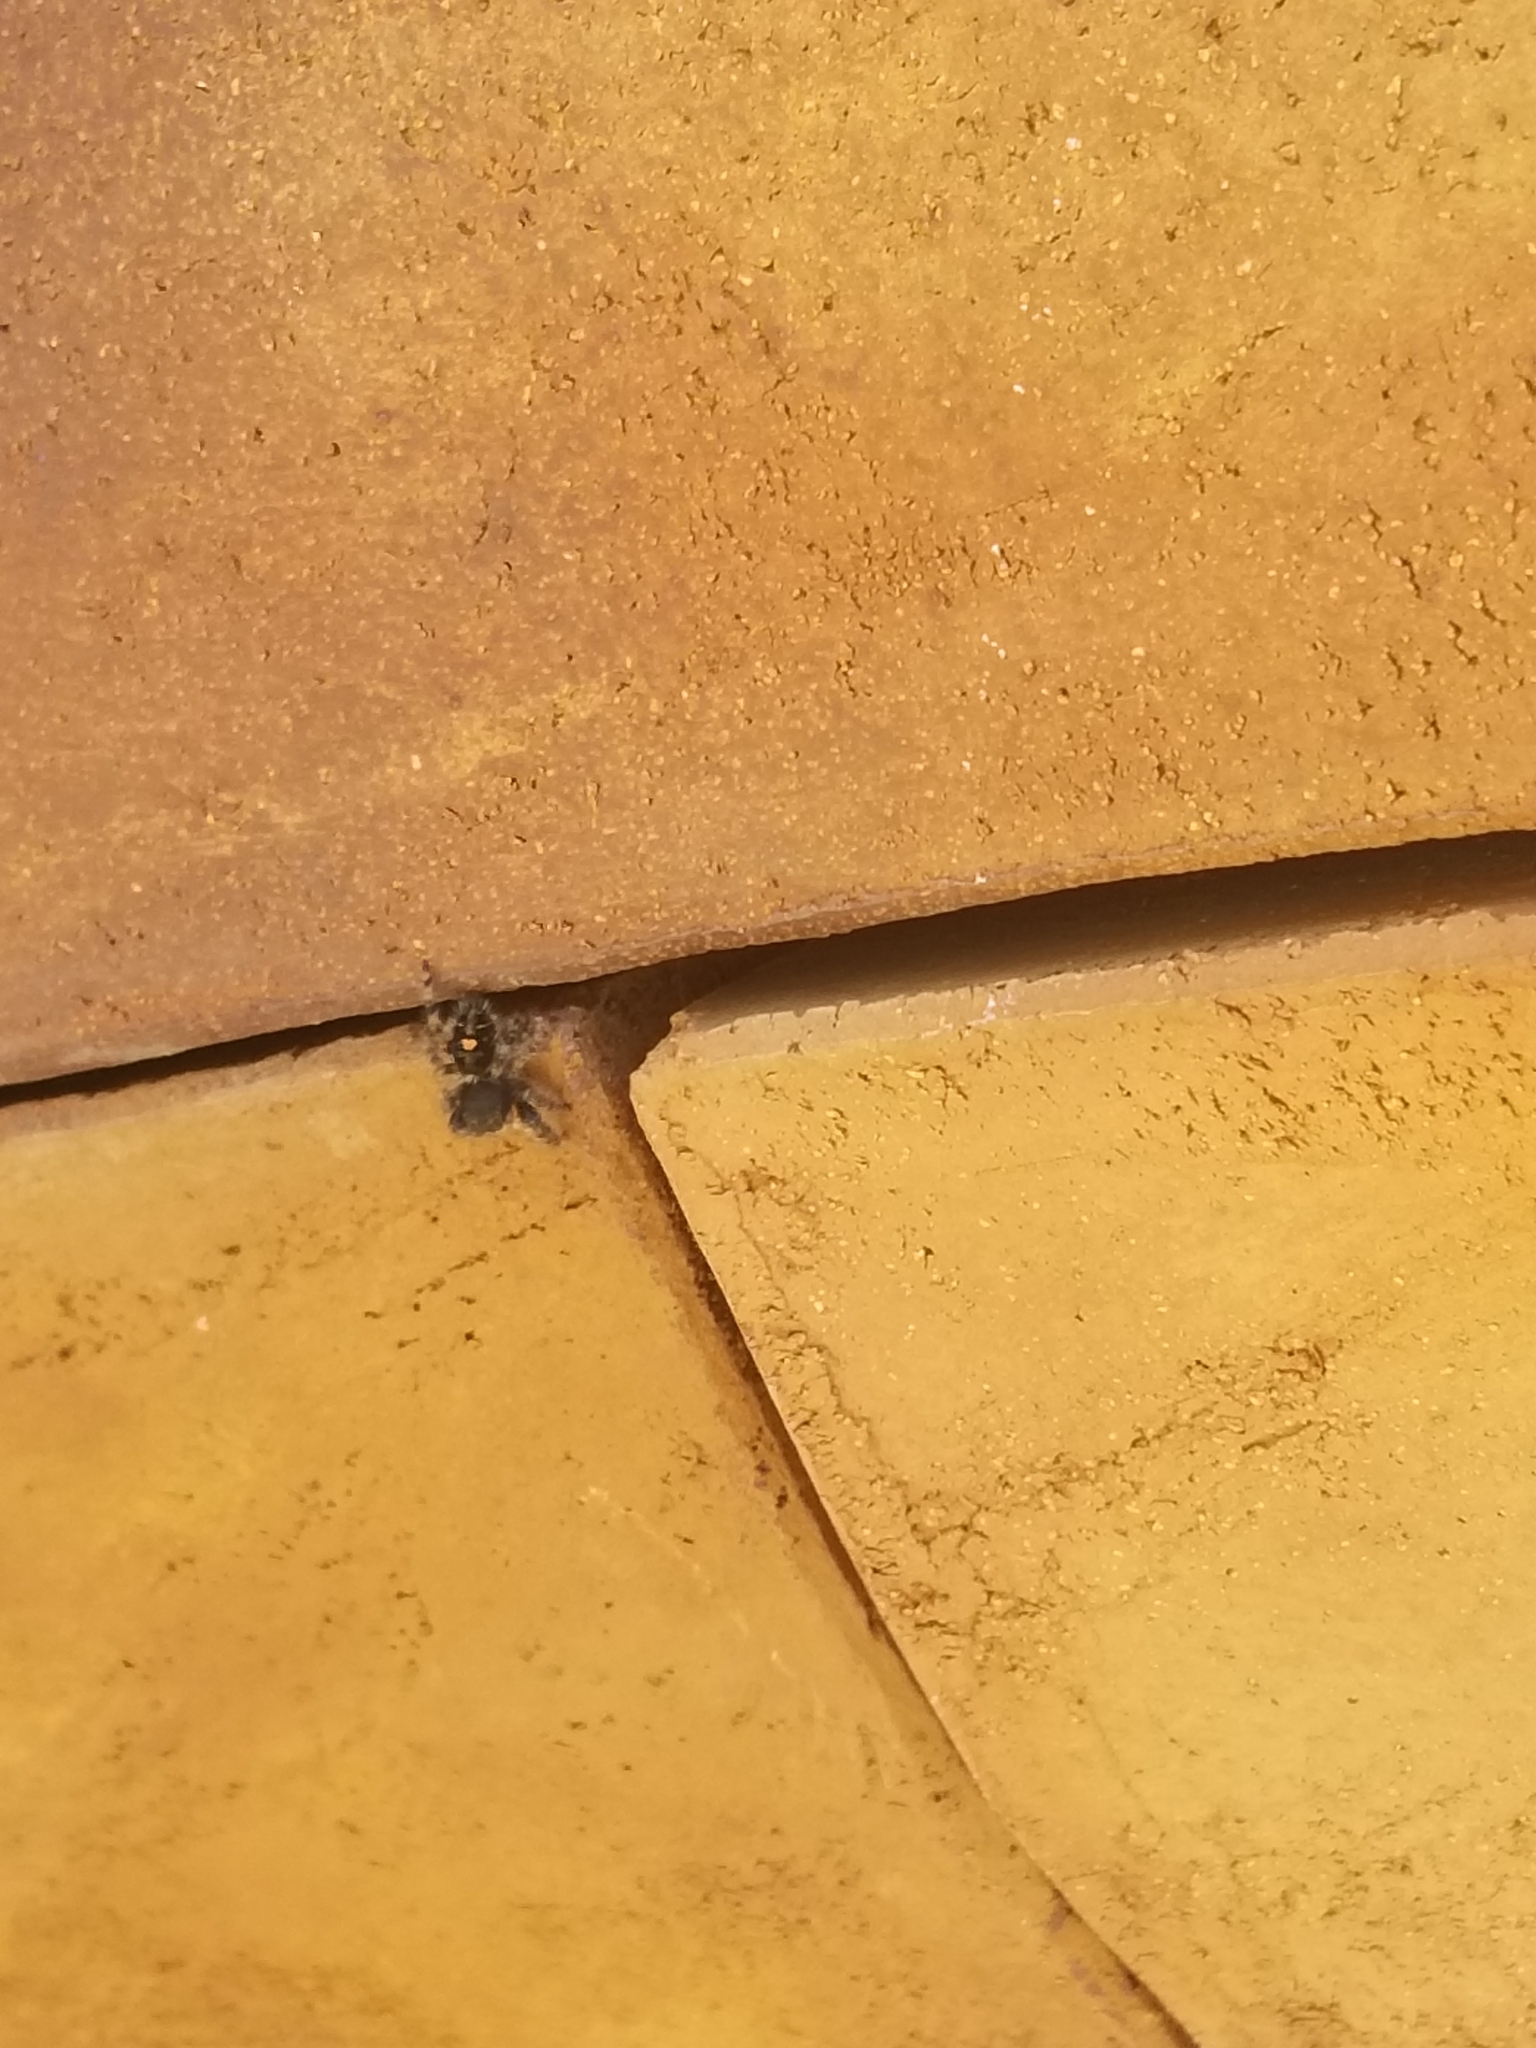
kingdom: Animalia
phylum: Arthropoda
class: Arachnida
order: Araneae
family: Salticidae
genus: Phidippus
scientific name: Phidippus audax
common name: Bold jumper
